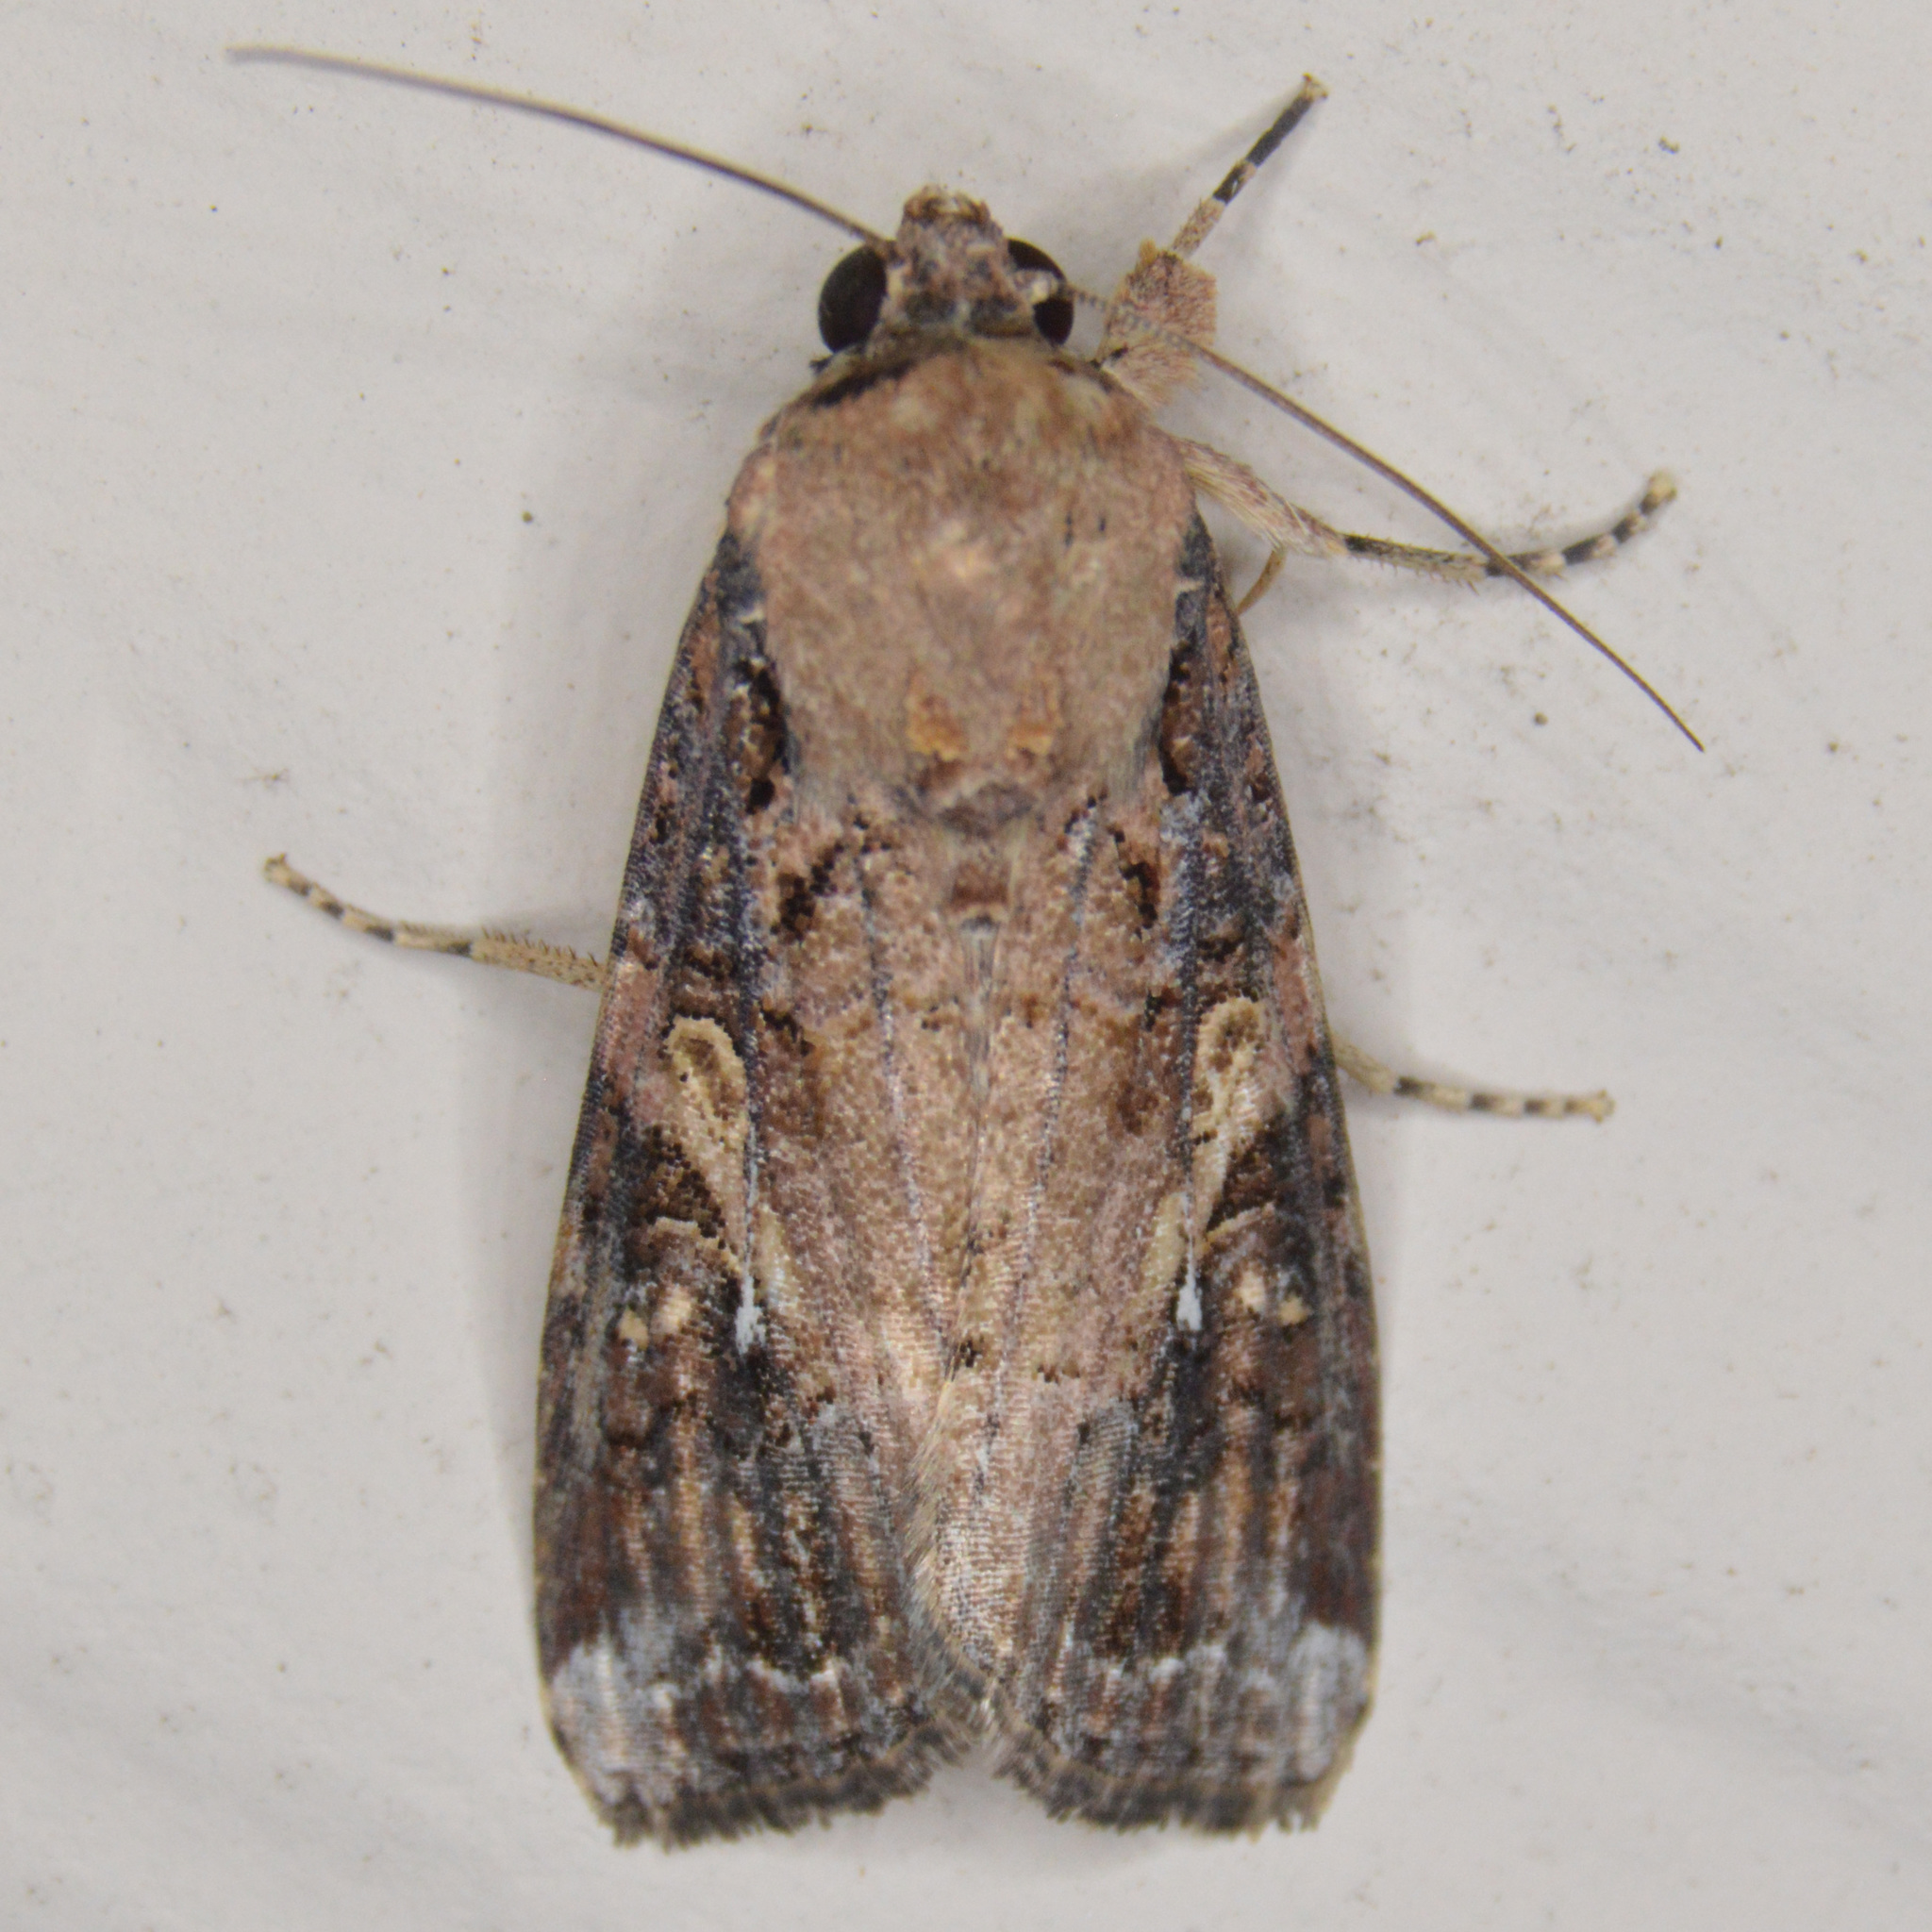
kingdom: Animalia
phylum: Arthropoda
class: Insecta
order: Lepidoptera
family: Noctuidae
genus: Spodoptera
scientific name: Spodoptera frugiperda
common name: Fall armyworm
